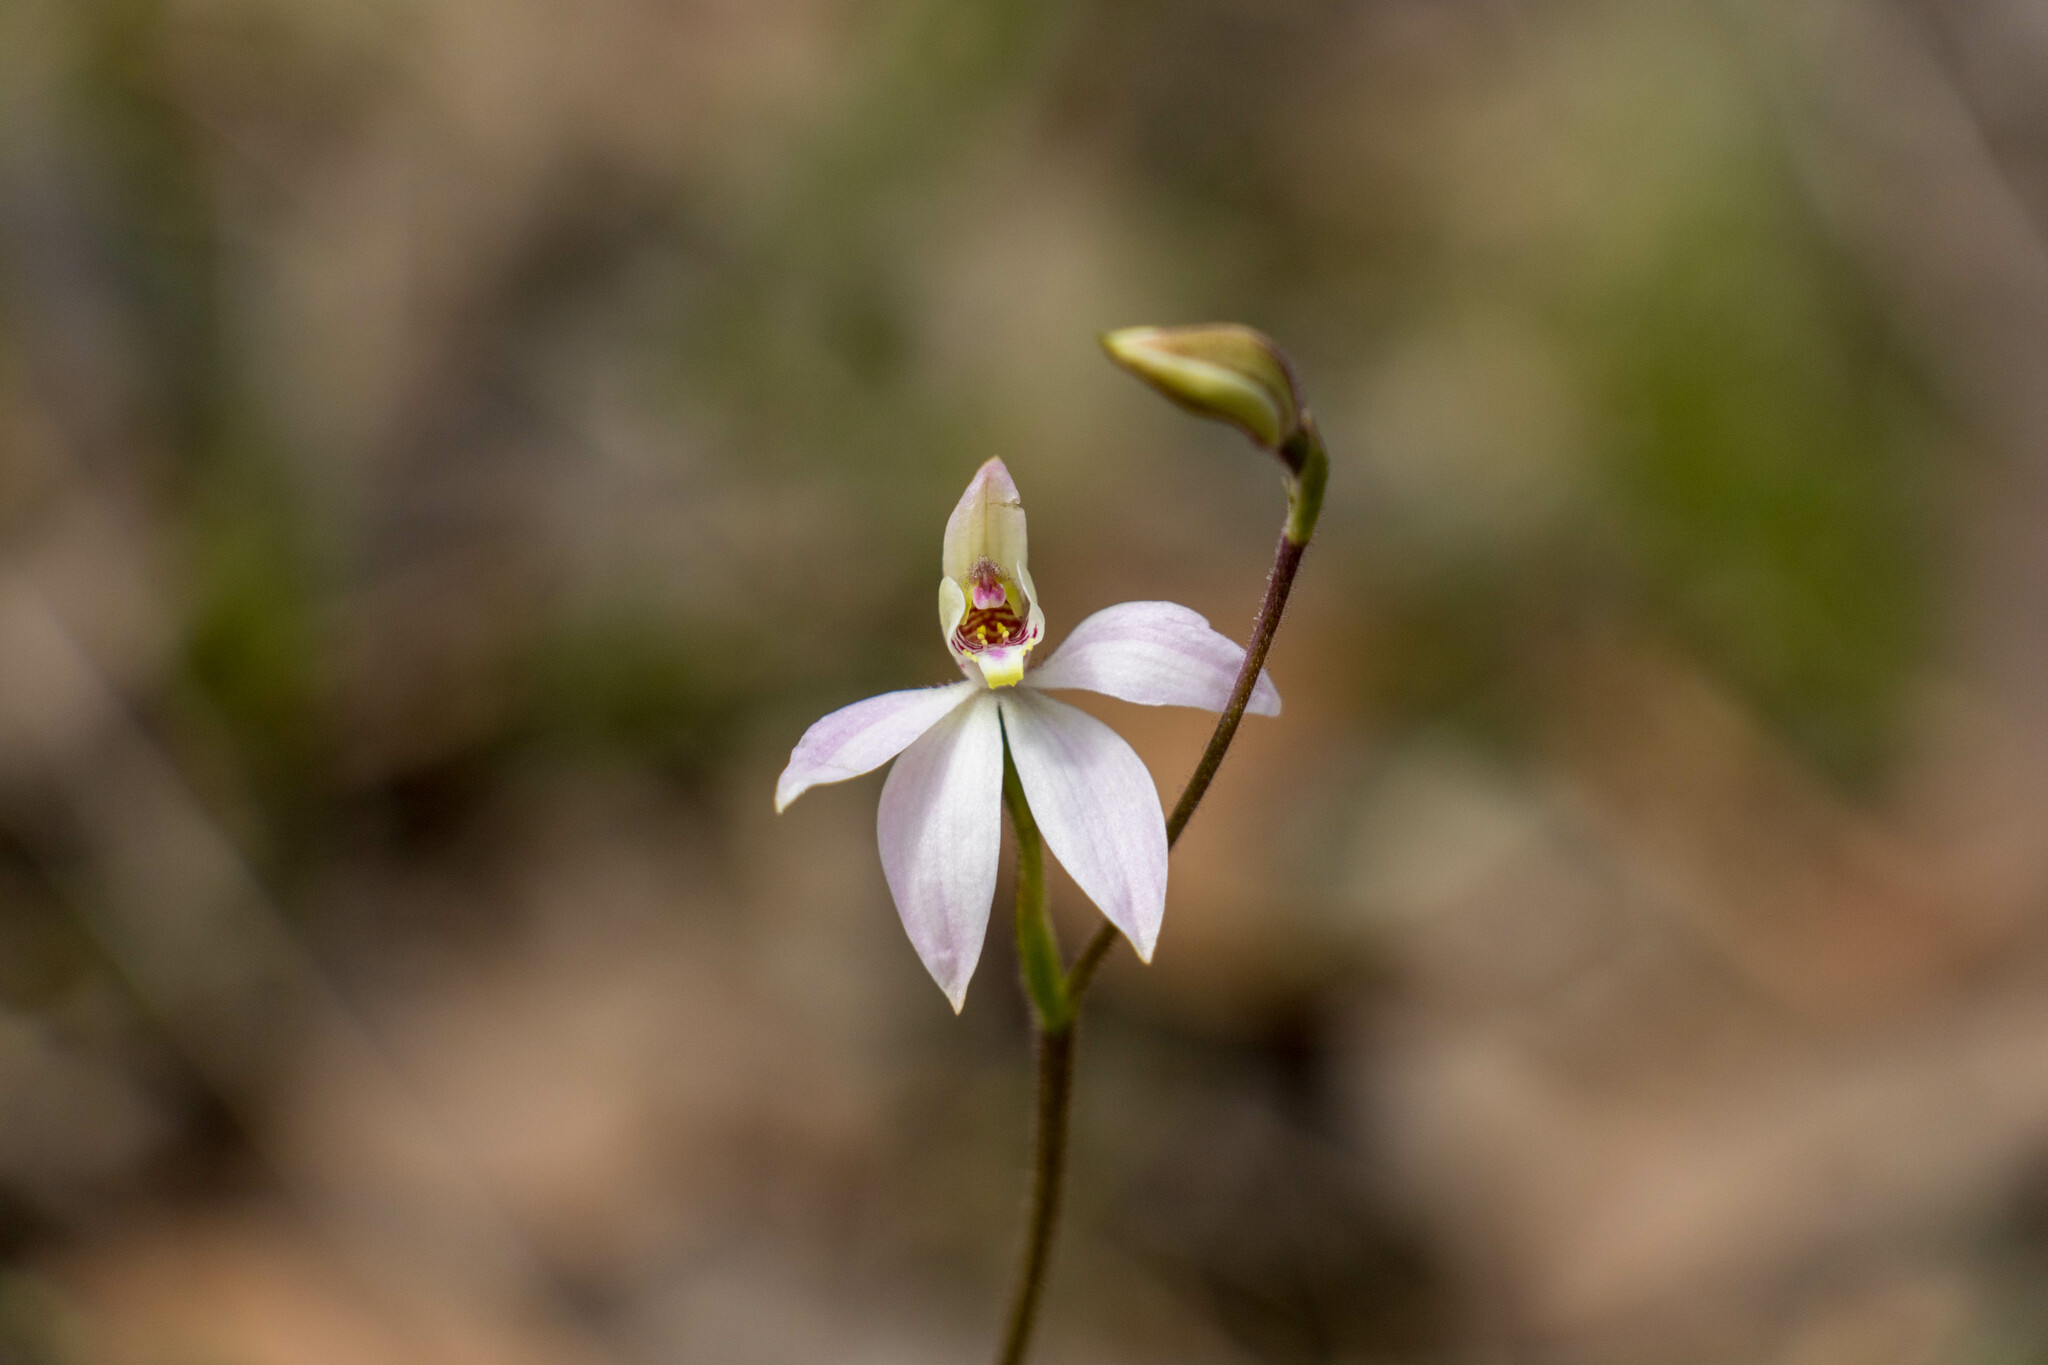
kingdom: Plantae
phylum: Tracheophyta
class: Liliopsida
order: Asparagales
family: Orchidaceae
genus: Caladenia
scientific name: Caladenia carnea
